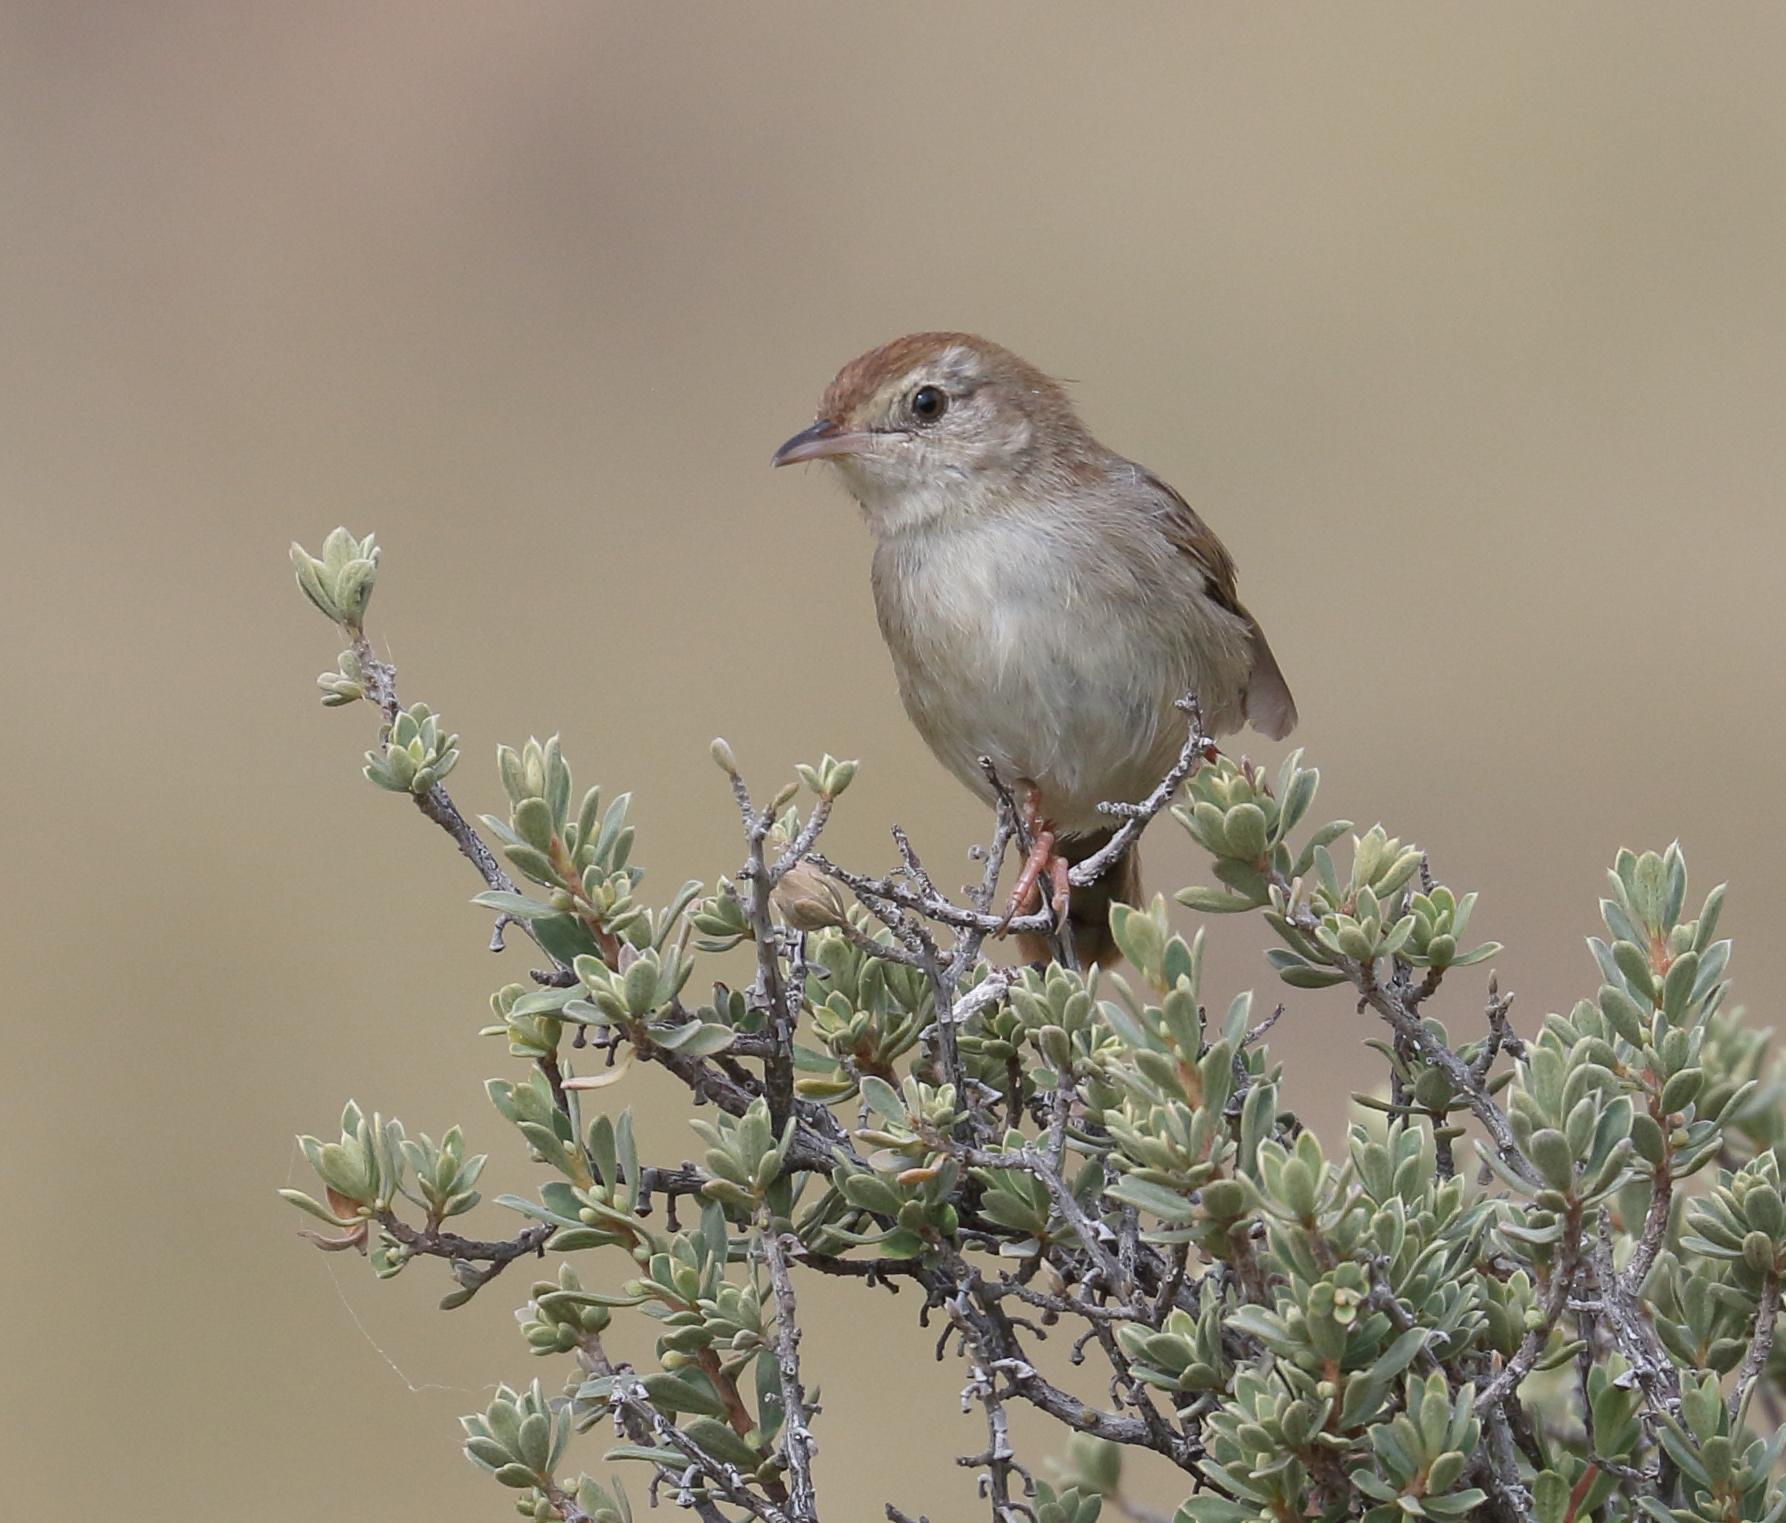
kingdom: Animalia
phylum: Chordata
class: Aves
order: Passeriformes
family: Cisticolidae
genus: Cisticola
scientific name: Cisticola subruficapilla
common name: Grey-backed cisticola
